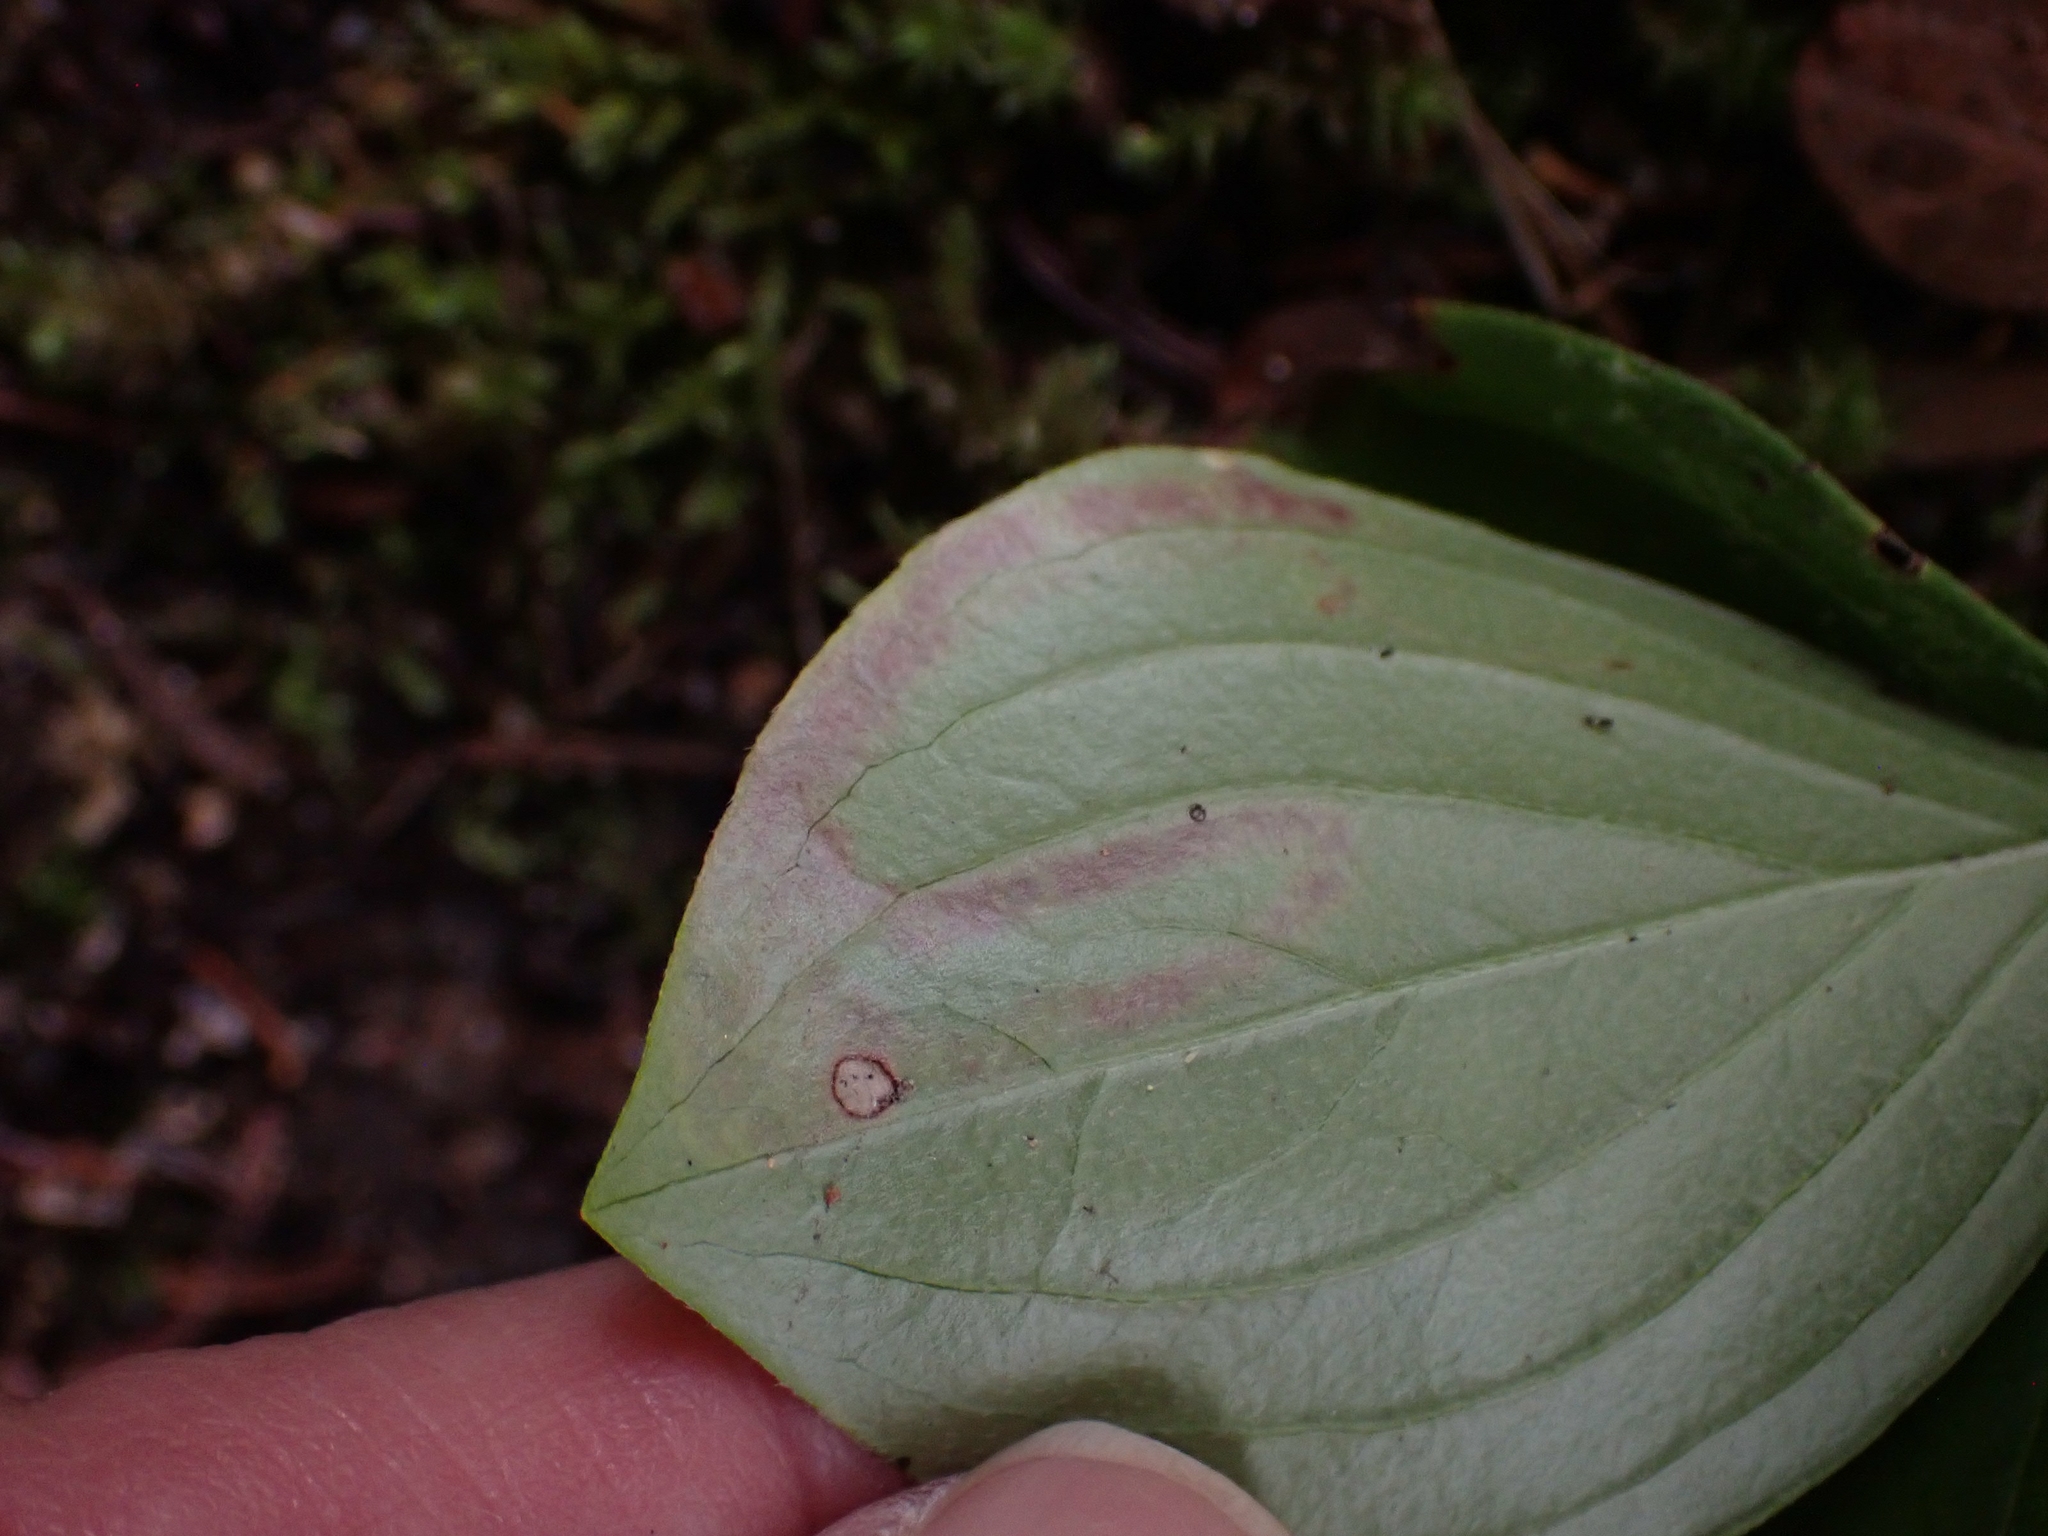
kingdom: Animalia
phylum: Arthropoda
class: Insecta
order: Diptera
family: Agromyzidae
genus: Phytomyza
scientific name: Phytomyza agromyzina
